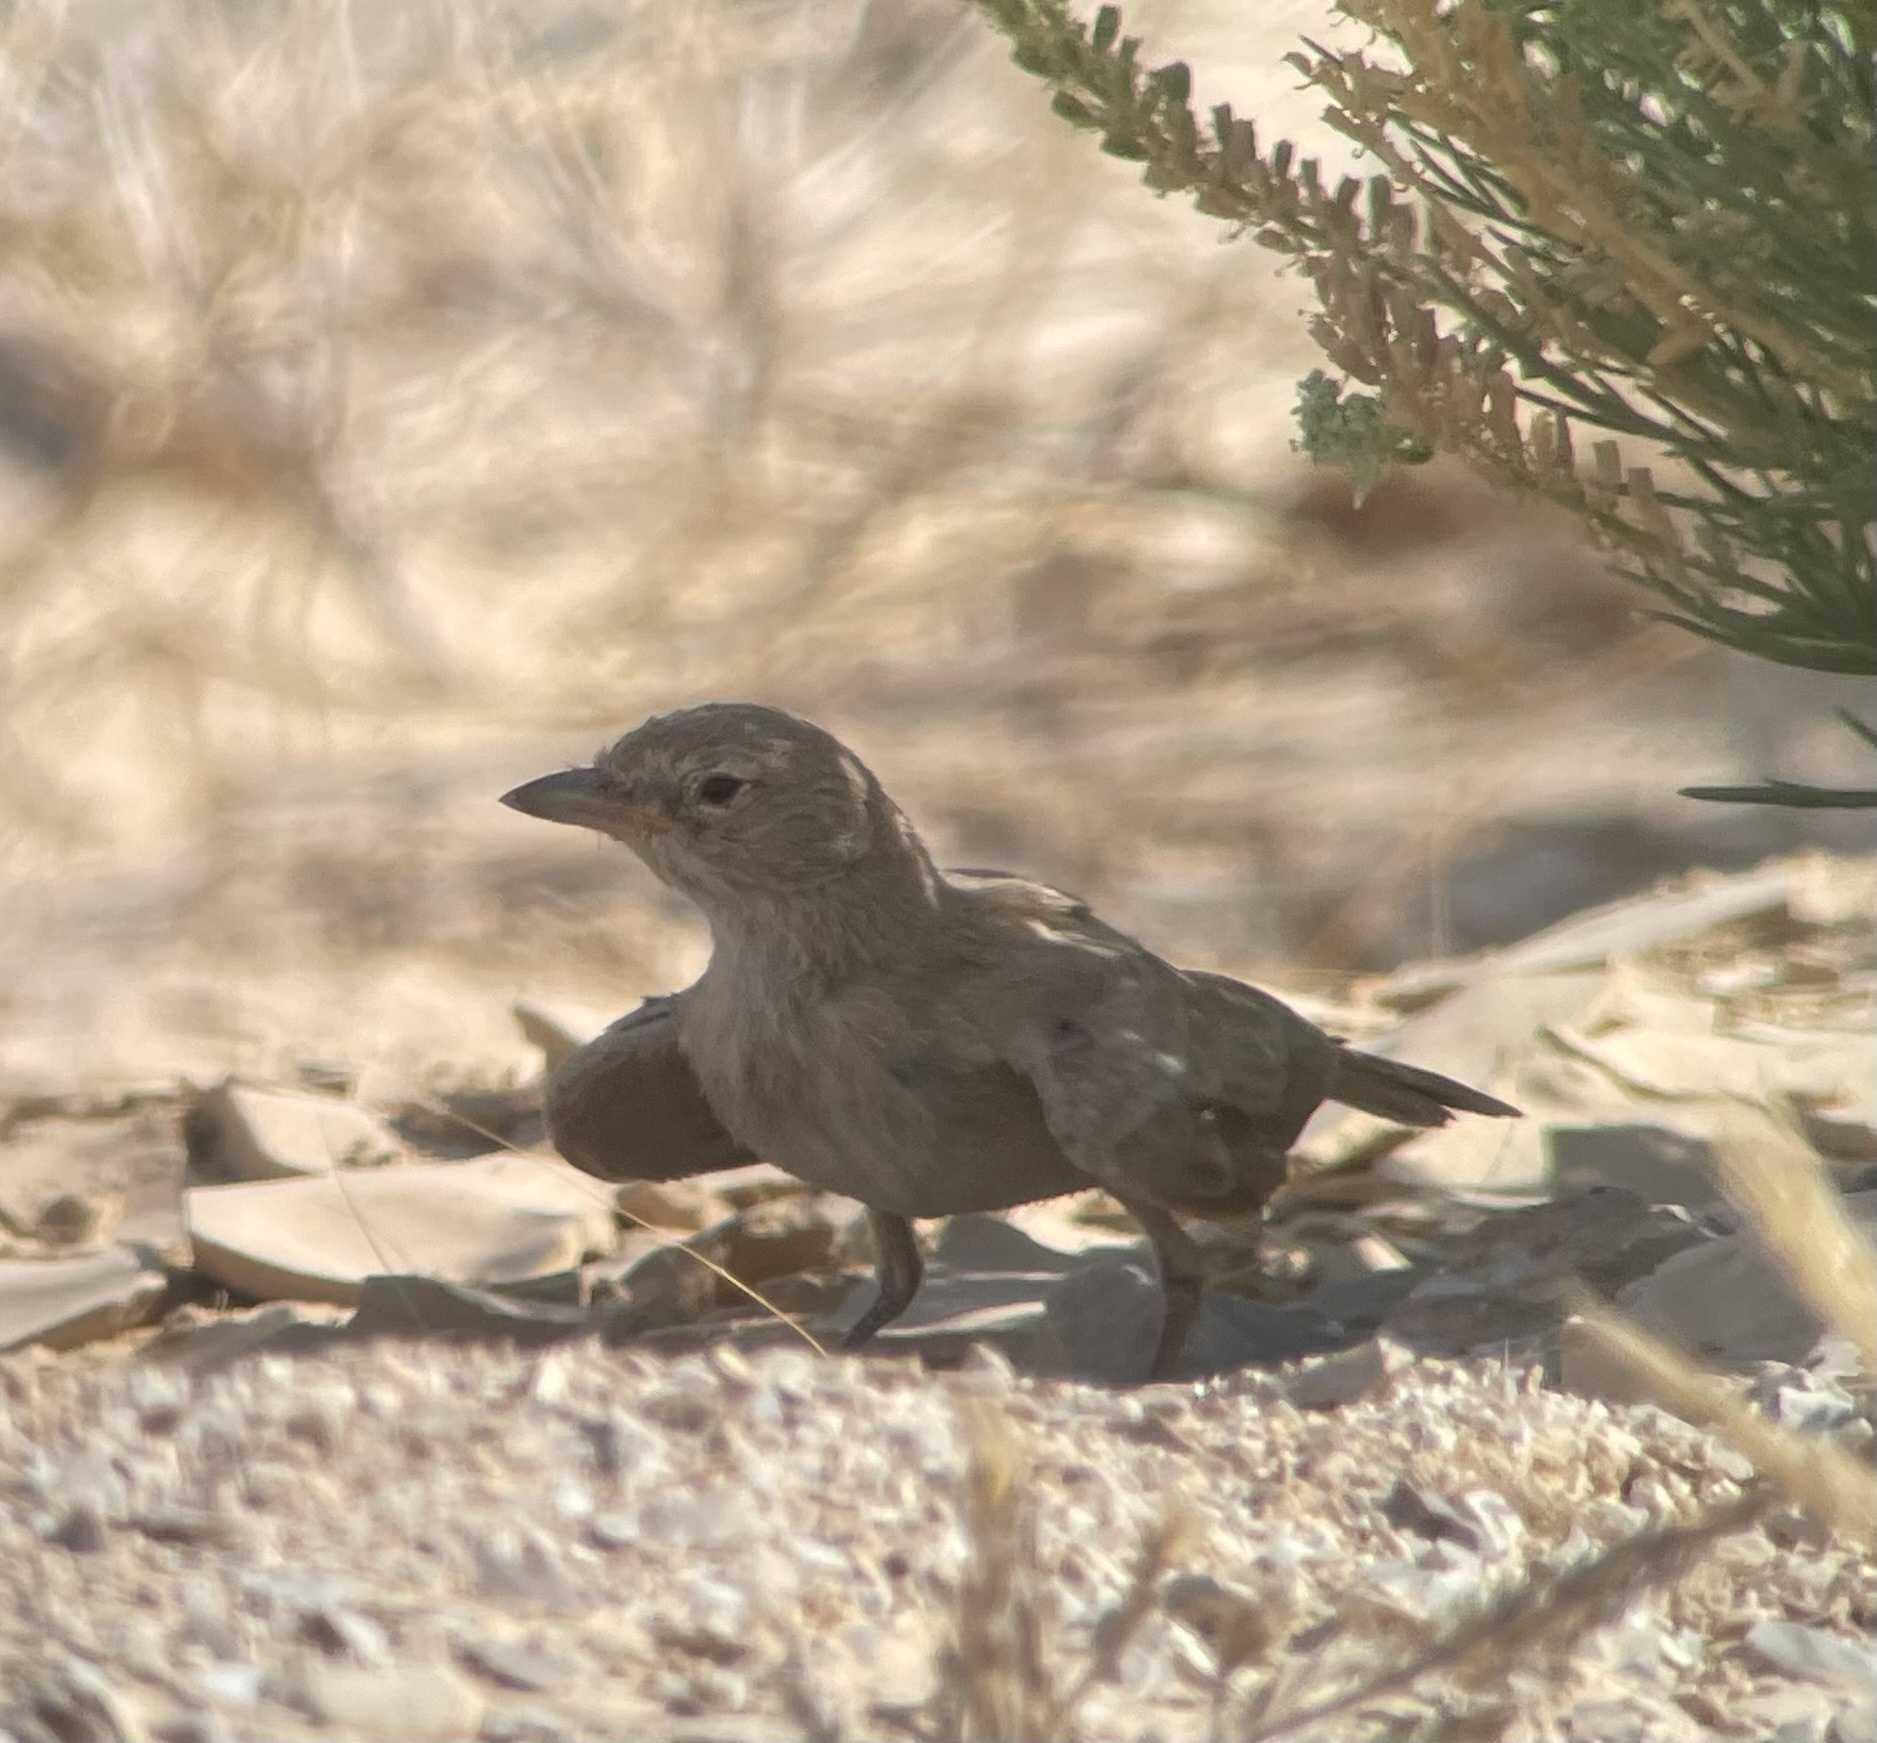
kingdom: Animalia
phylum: Chordata
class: Aves
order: Passeriformes
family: Alaudidae
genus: Ammomanes
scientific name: Ammomanes deserti
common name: Desert lark
